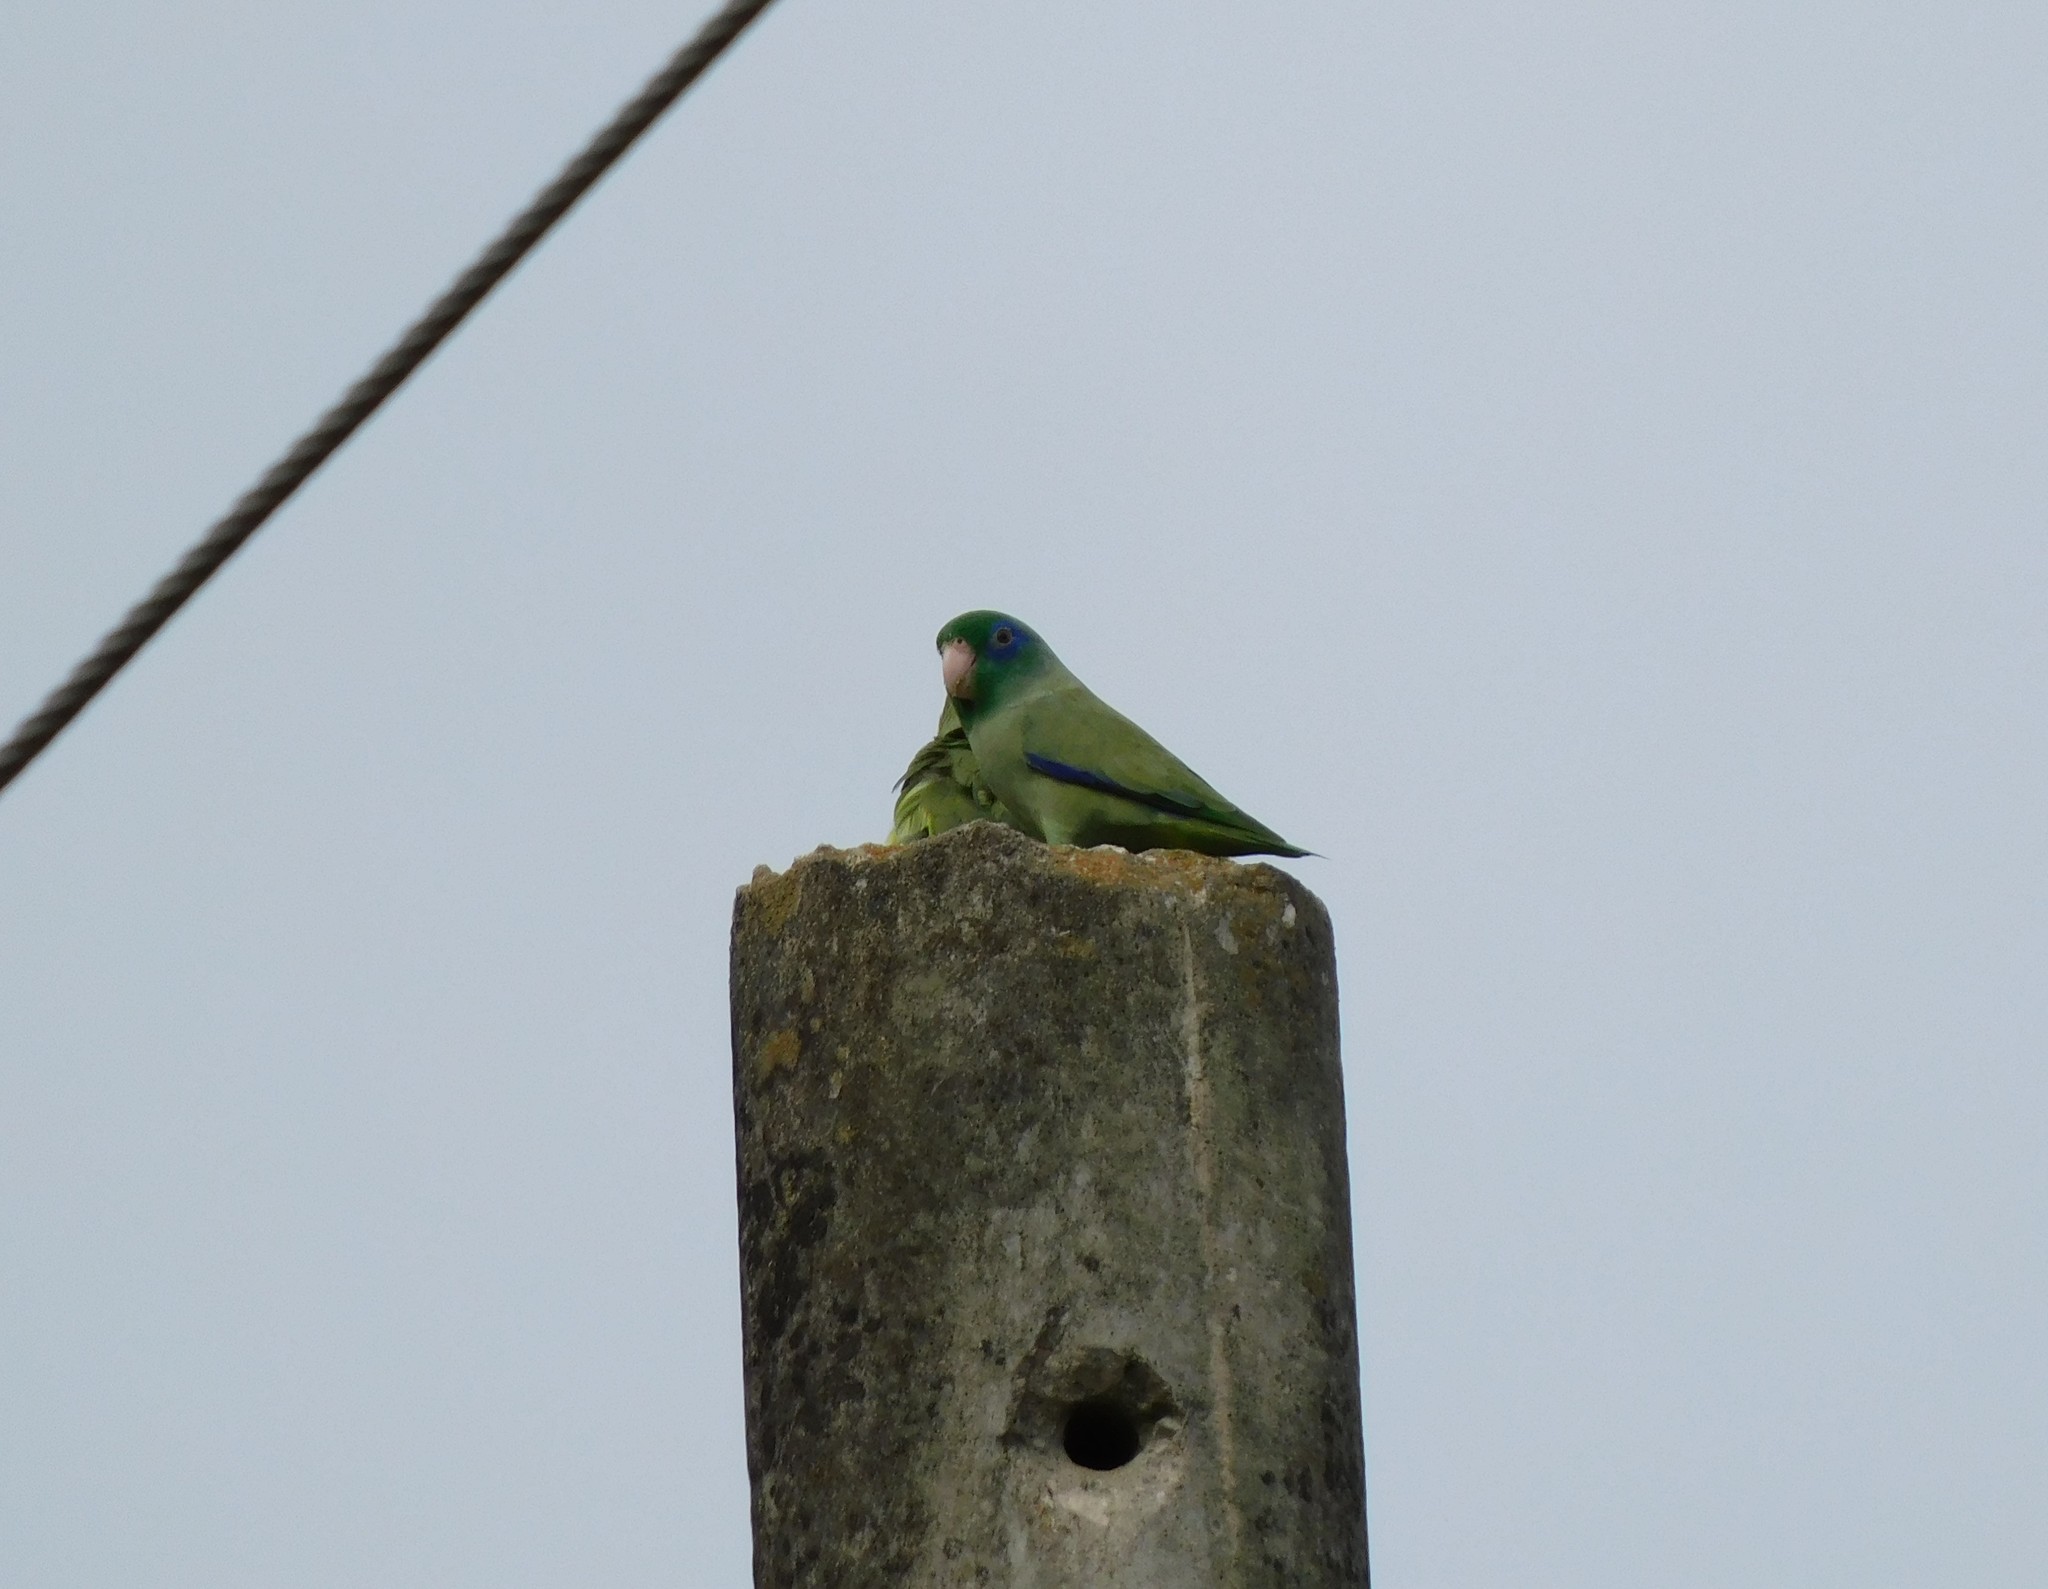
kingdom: Animalia
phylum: Chordata
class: Aves
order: Psittaciformes
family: Psittacidae
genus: Forpus
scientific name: Forpus conspicillatus
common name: Spectacled parrotlet
